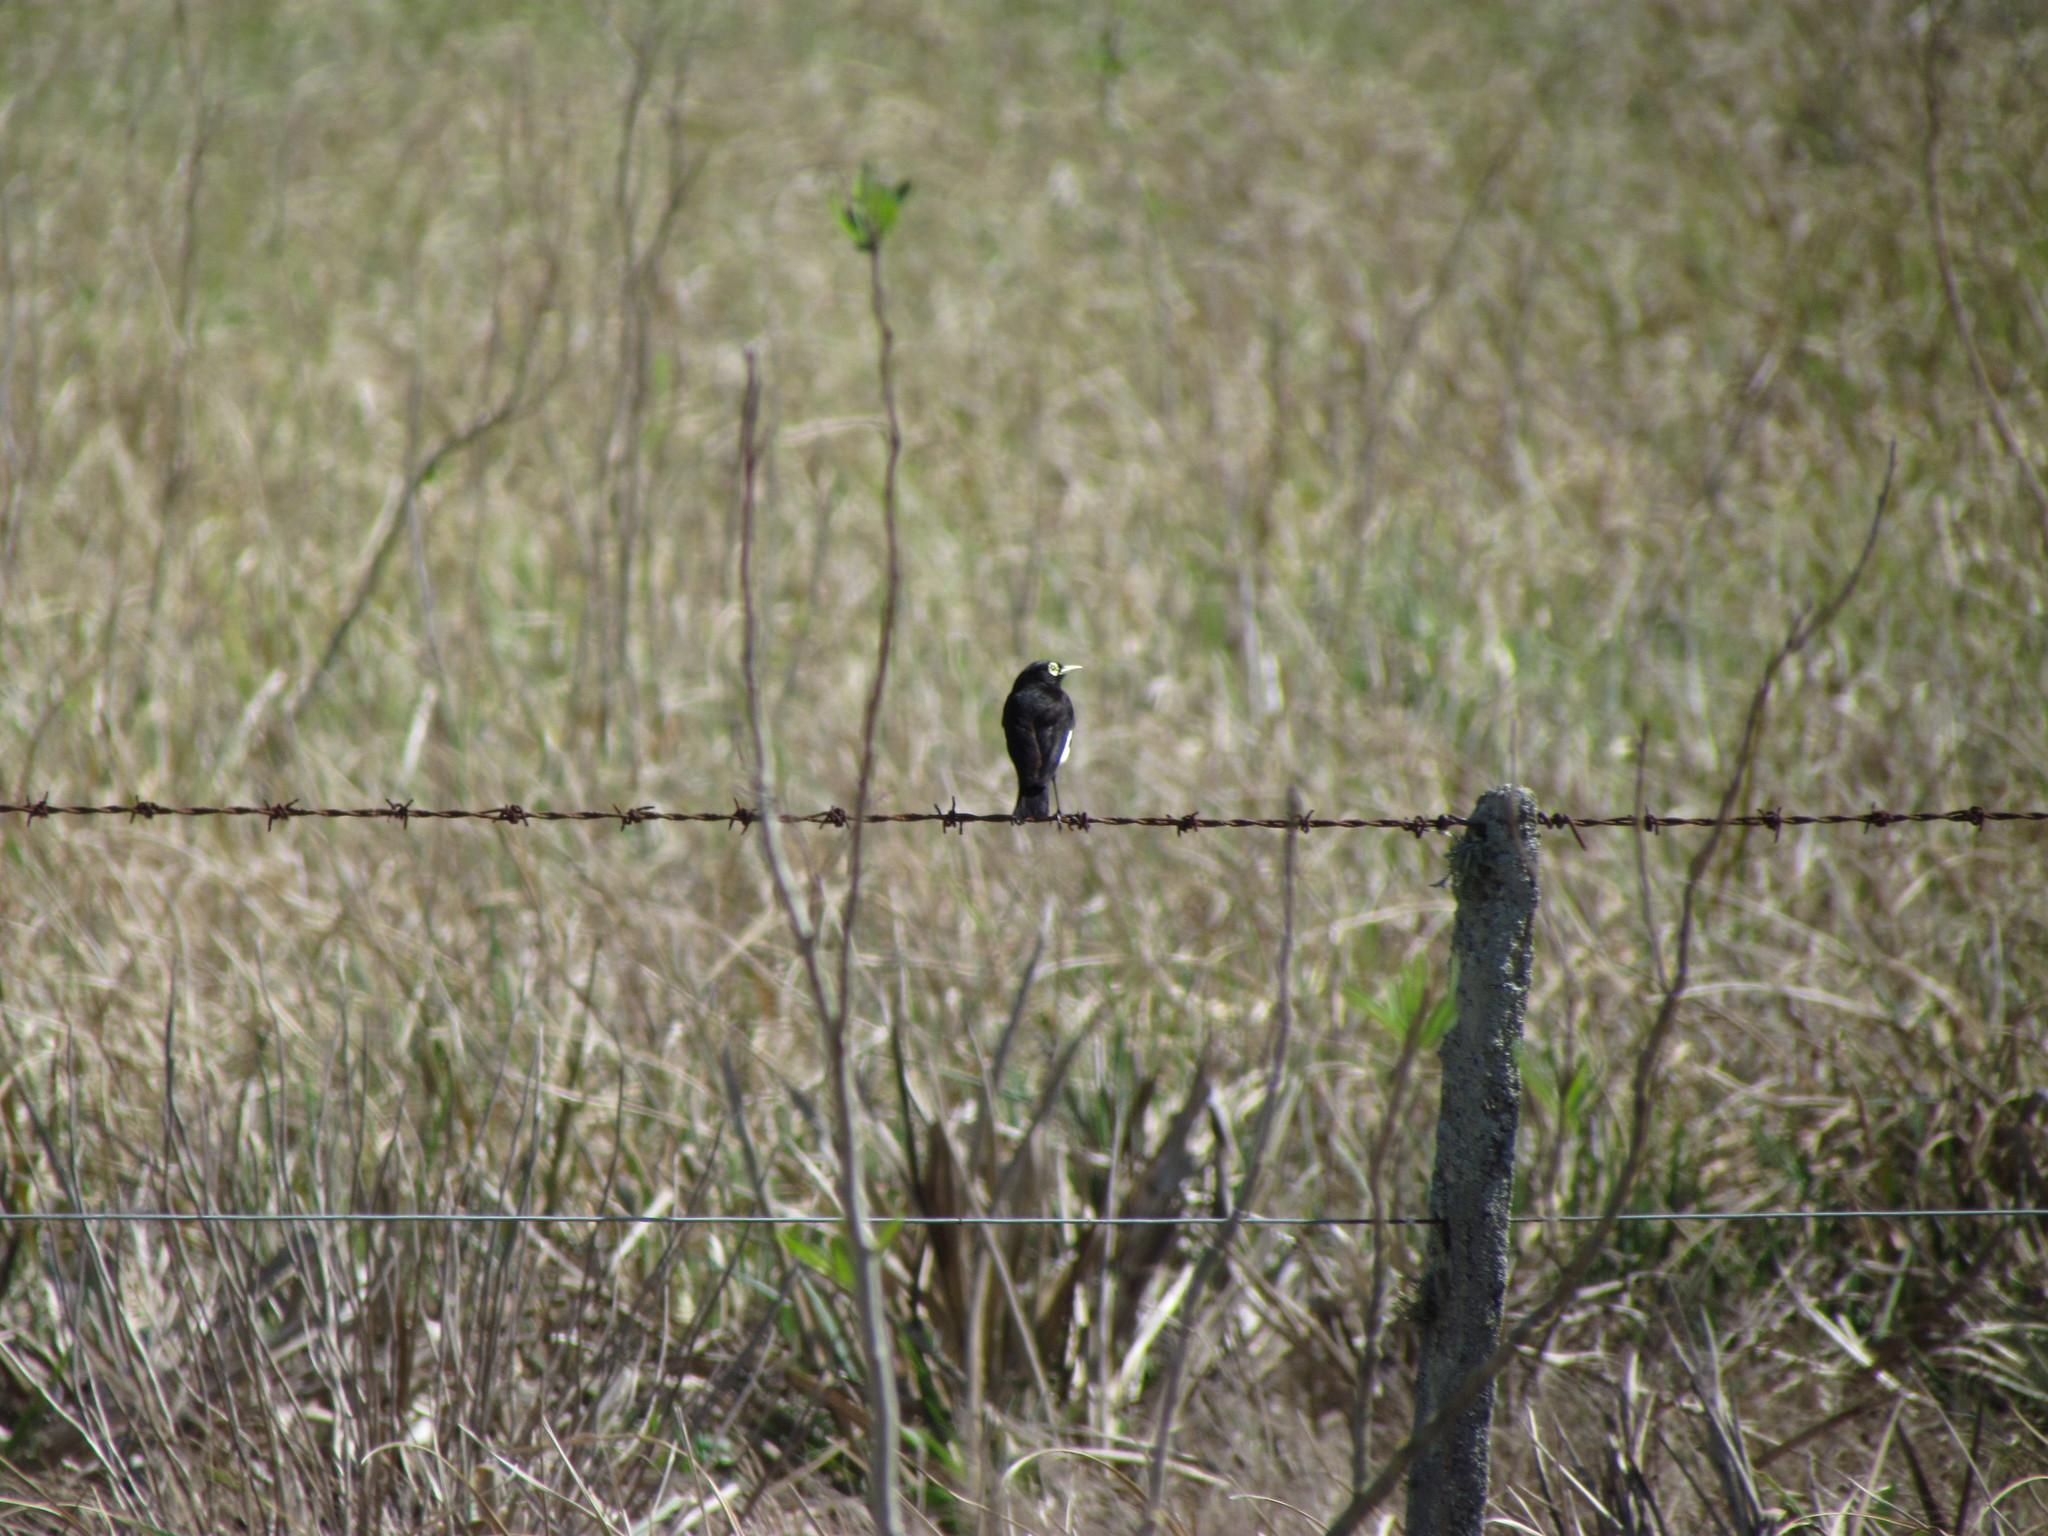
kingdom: Animalia
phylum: Chordata
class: Aves
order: Passeriformes
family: Tyrannidae
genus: Hymenops
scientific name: Hymenops perspicillatus
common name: Spectacled tyrant
